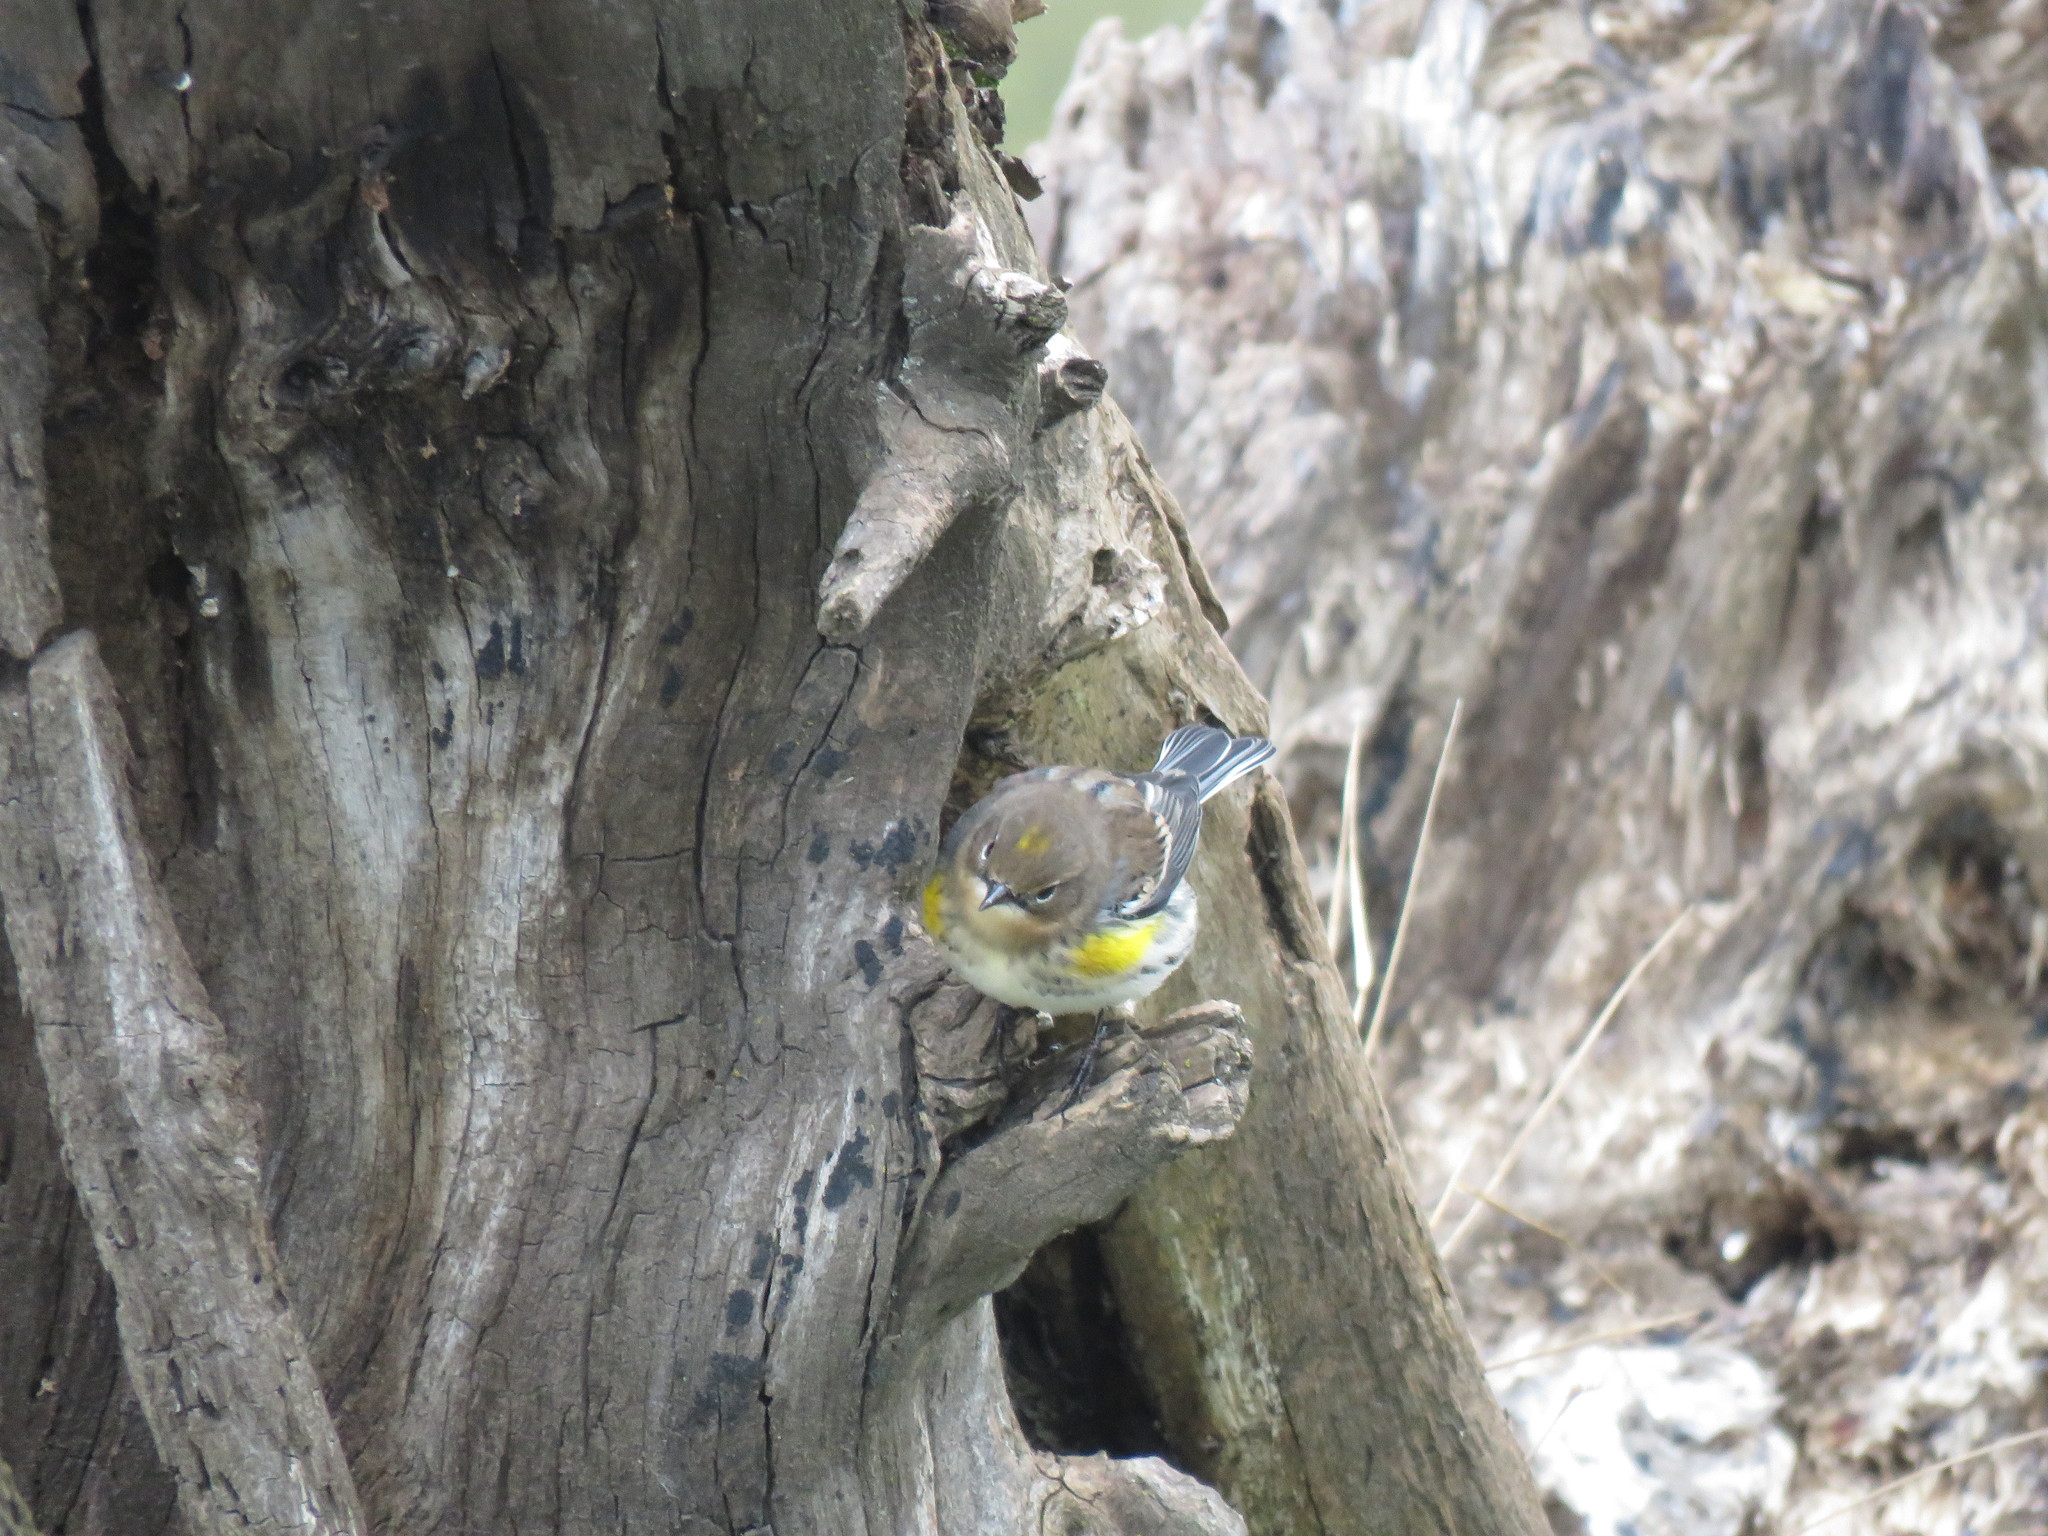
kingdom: Animalia
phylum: Chordata
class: Aves
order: Passeriformes
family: Parulidae
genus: Setophaga
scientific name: Setophaga coronata
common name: Myrtle warbler
